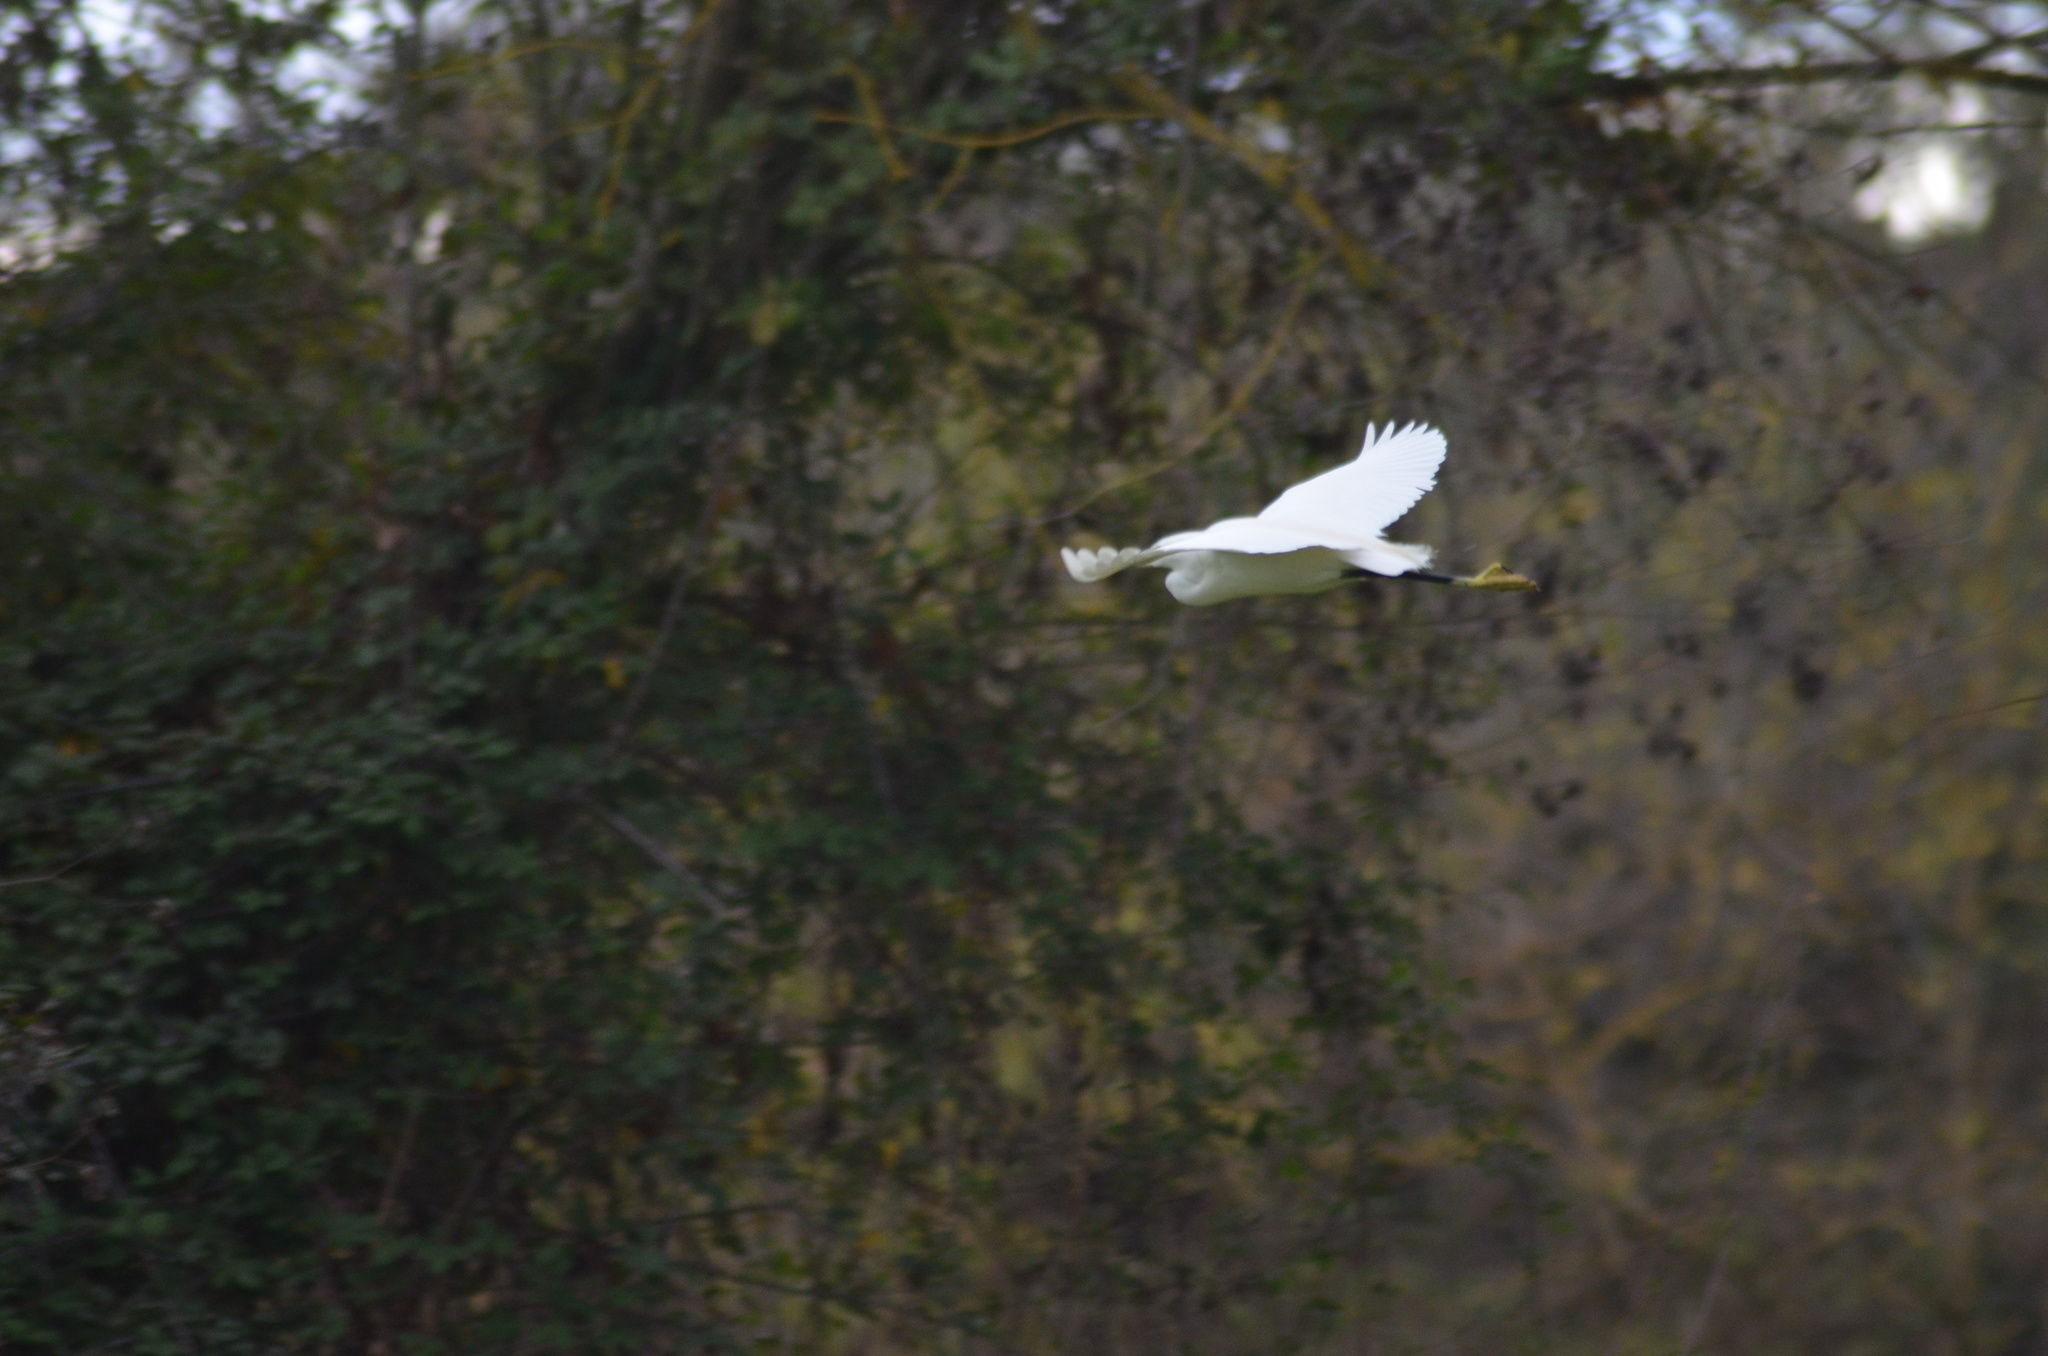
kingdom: Animalia
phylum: Chordata
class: Aves
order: Pelecaniformes
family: Ardeidae
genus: Egretta
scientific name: Egretta garzetta
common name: Little egret
